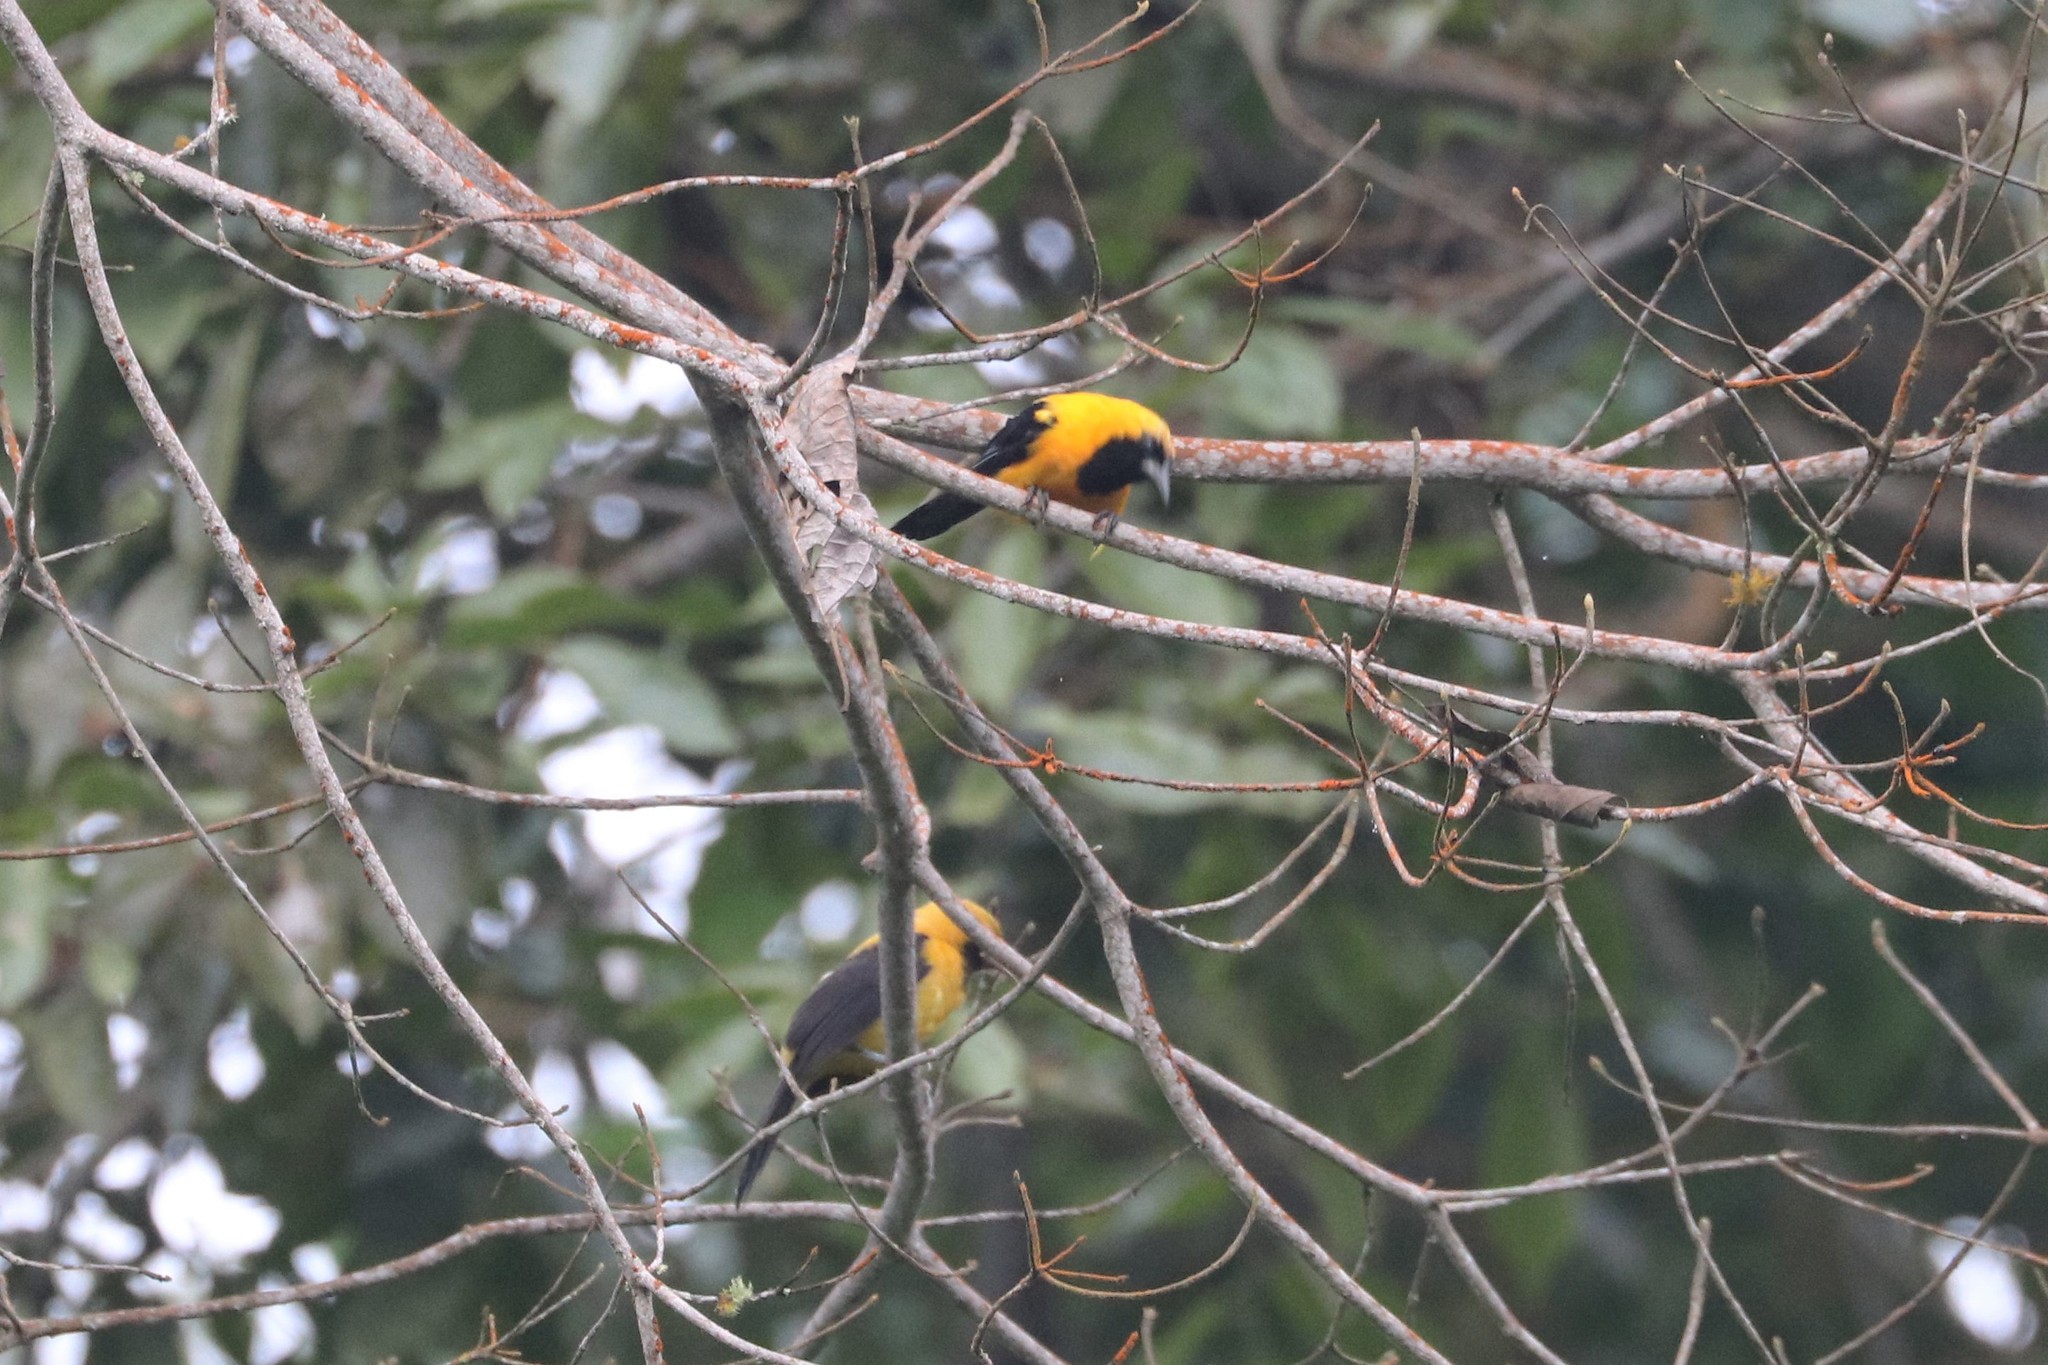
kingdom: Animalia
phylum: Chordata
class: Aves
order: Passeriformes
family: Icteridae
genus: Icterus
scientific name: Icterus chrysater
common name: Yellow-backed oriole
